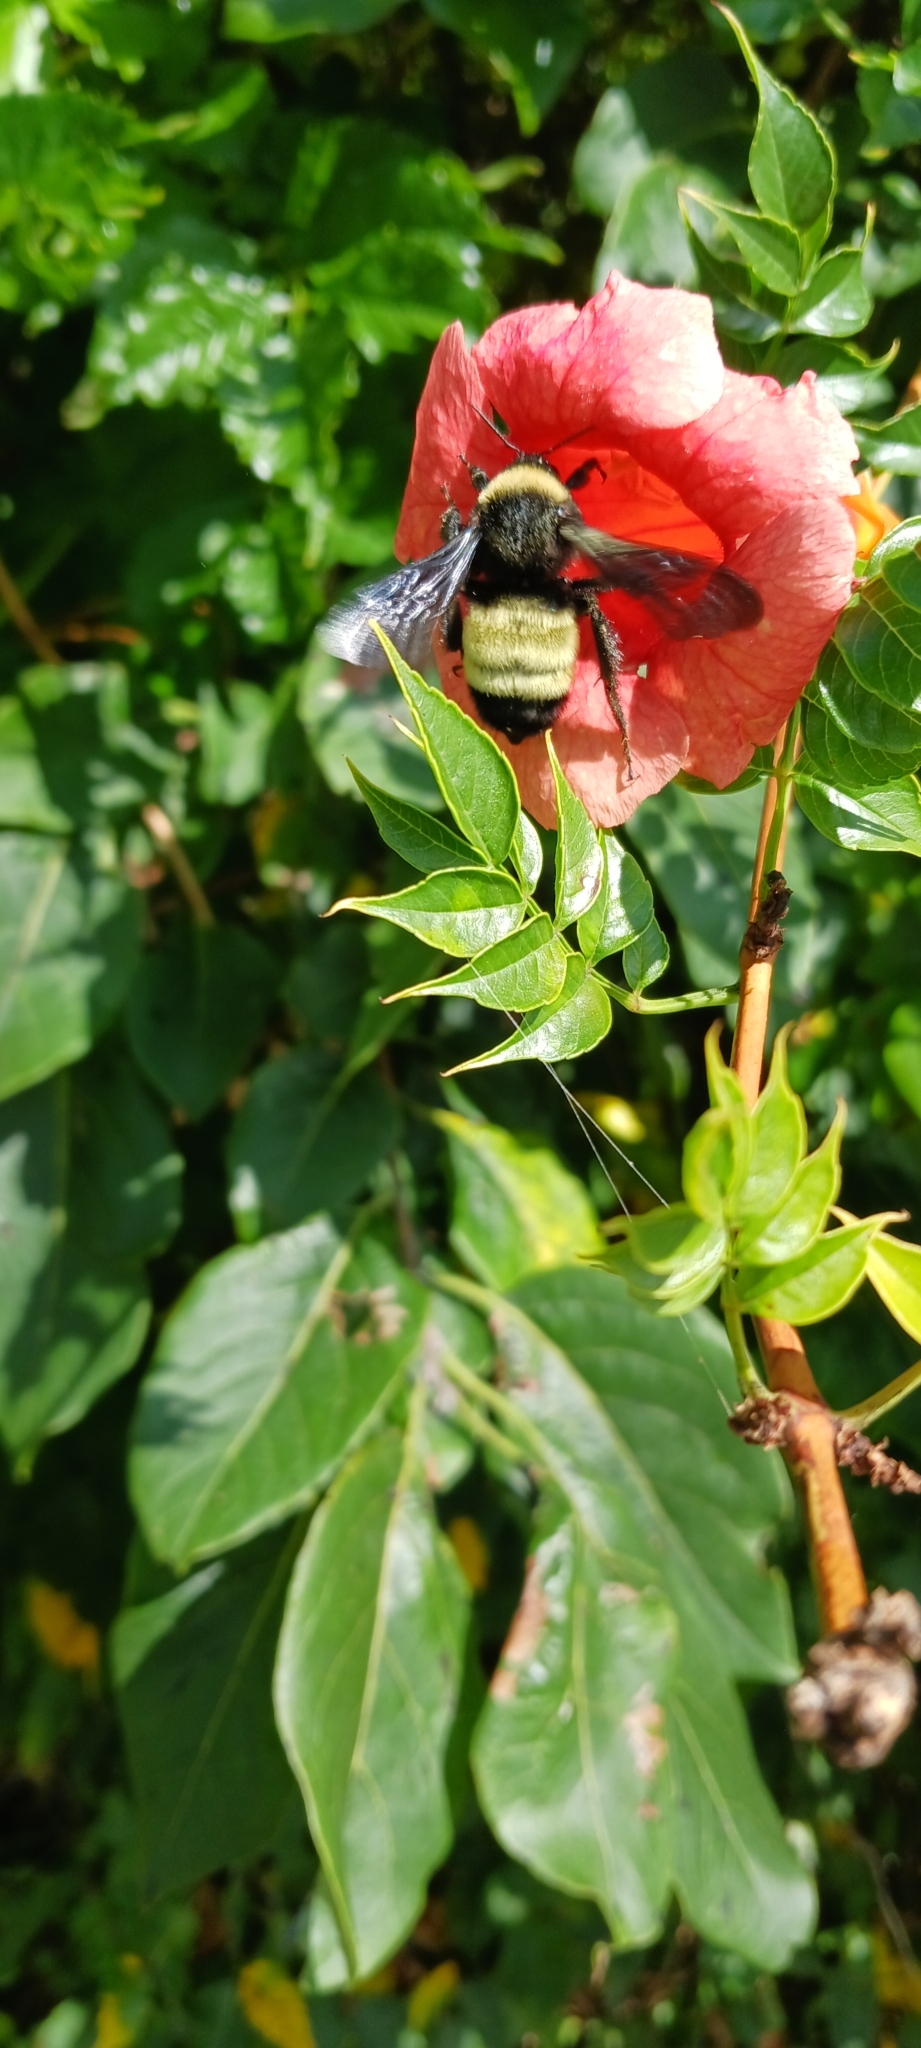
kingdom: Animalia
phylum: Arthropoda
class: Insecta
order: Hymenoptera
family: Apidae
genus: Bombus
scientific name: Bombus pensylvanicus
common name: Bumble bee
